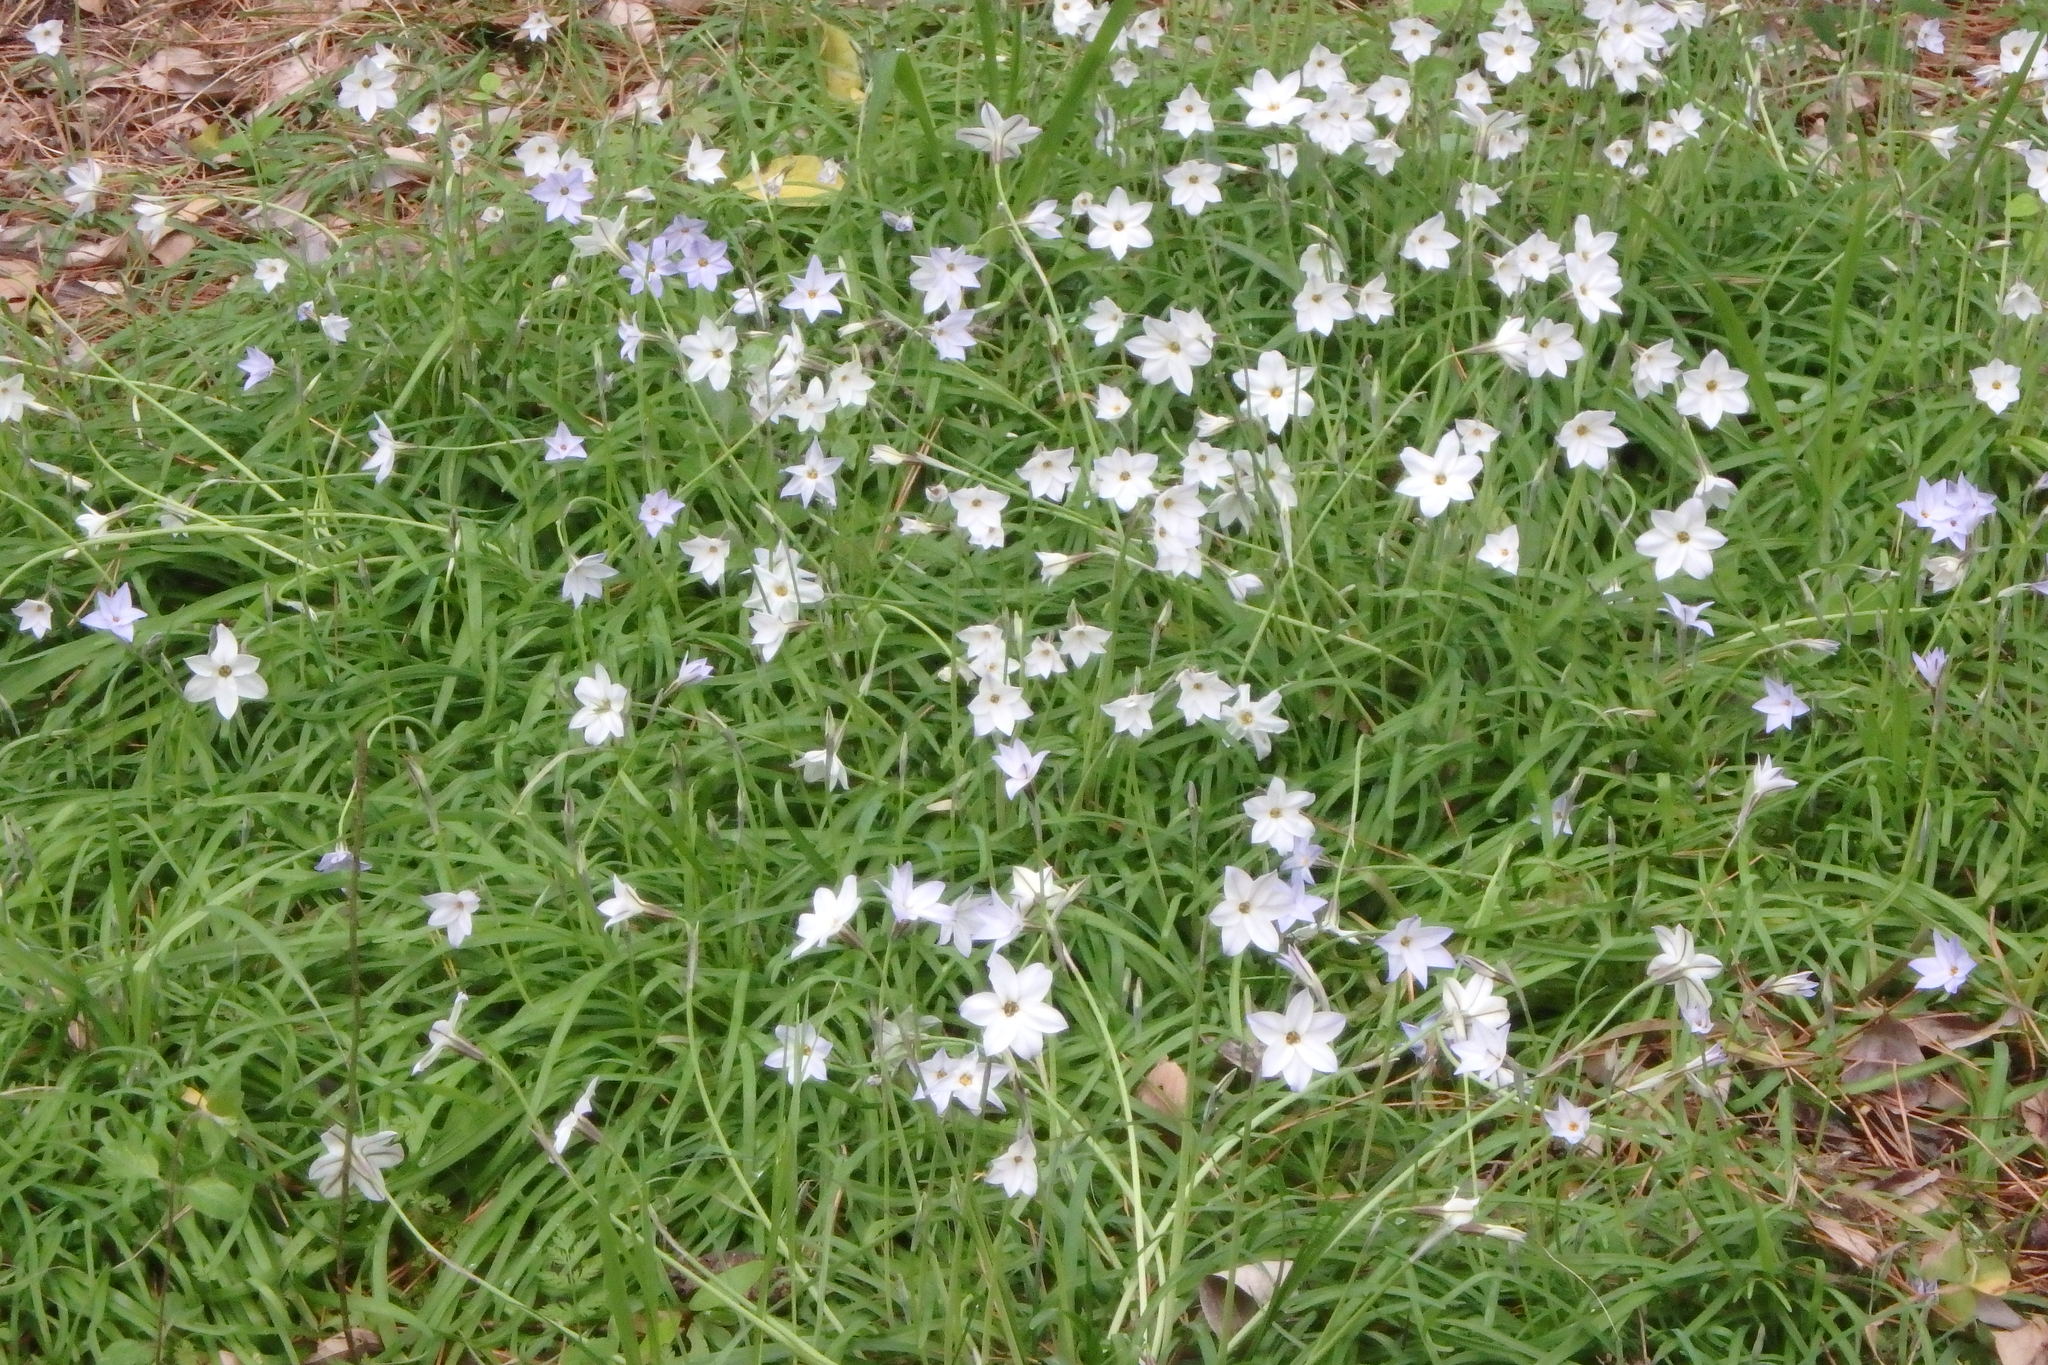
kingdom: Plantae
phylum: Tracheophyta
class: Liliopsida
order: Asparagales
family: Amaryllidaceae
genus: Ipheion
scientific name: Ipheion uniflorum
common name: Spring starflower
